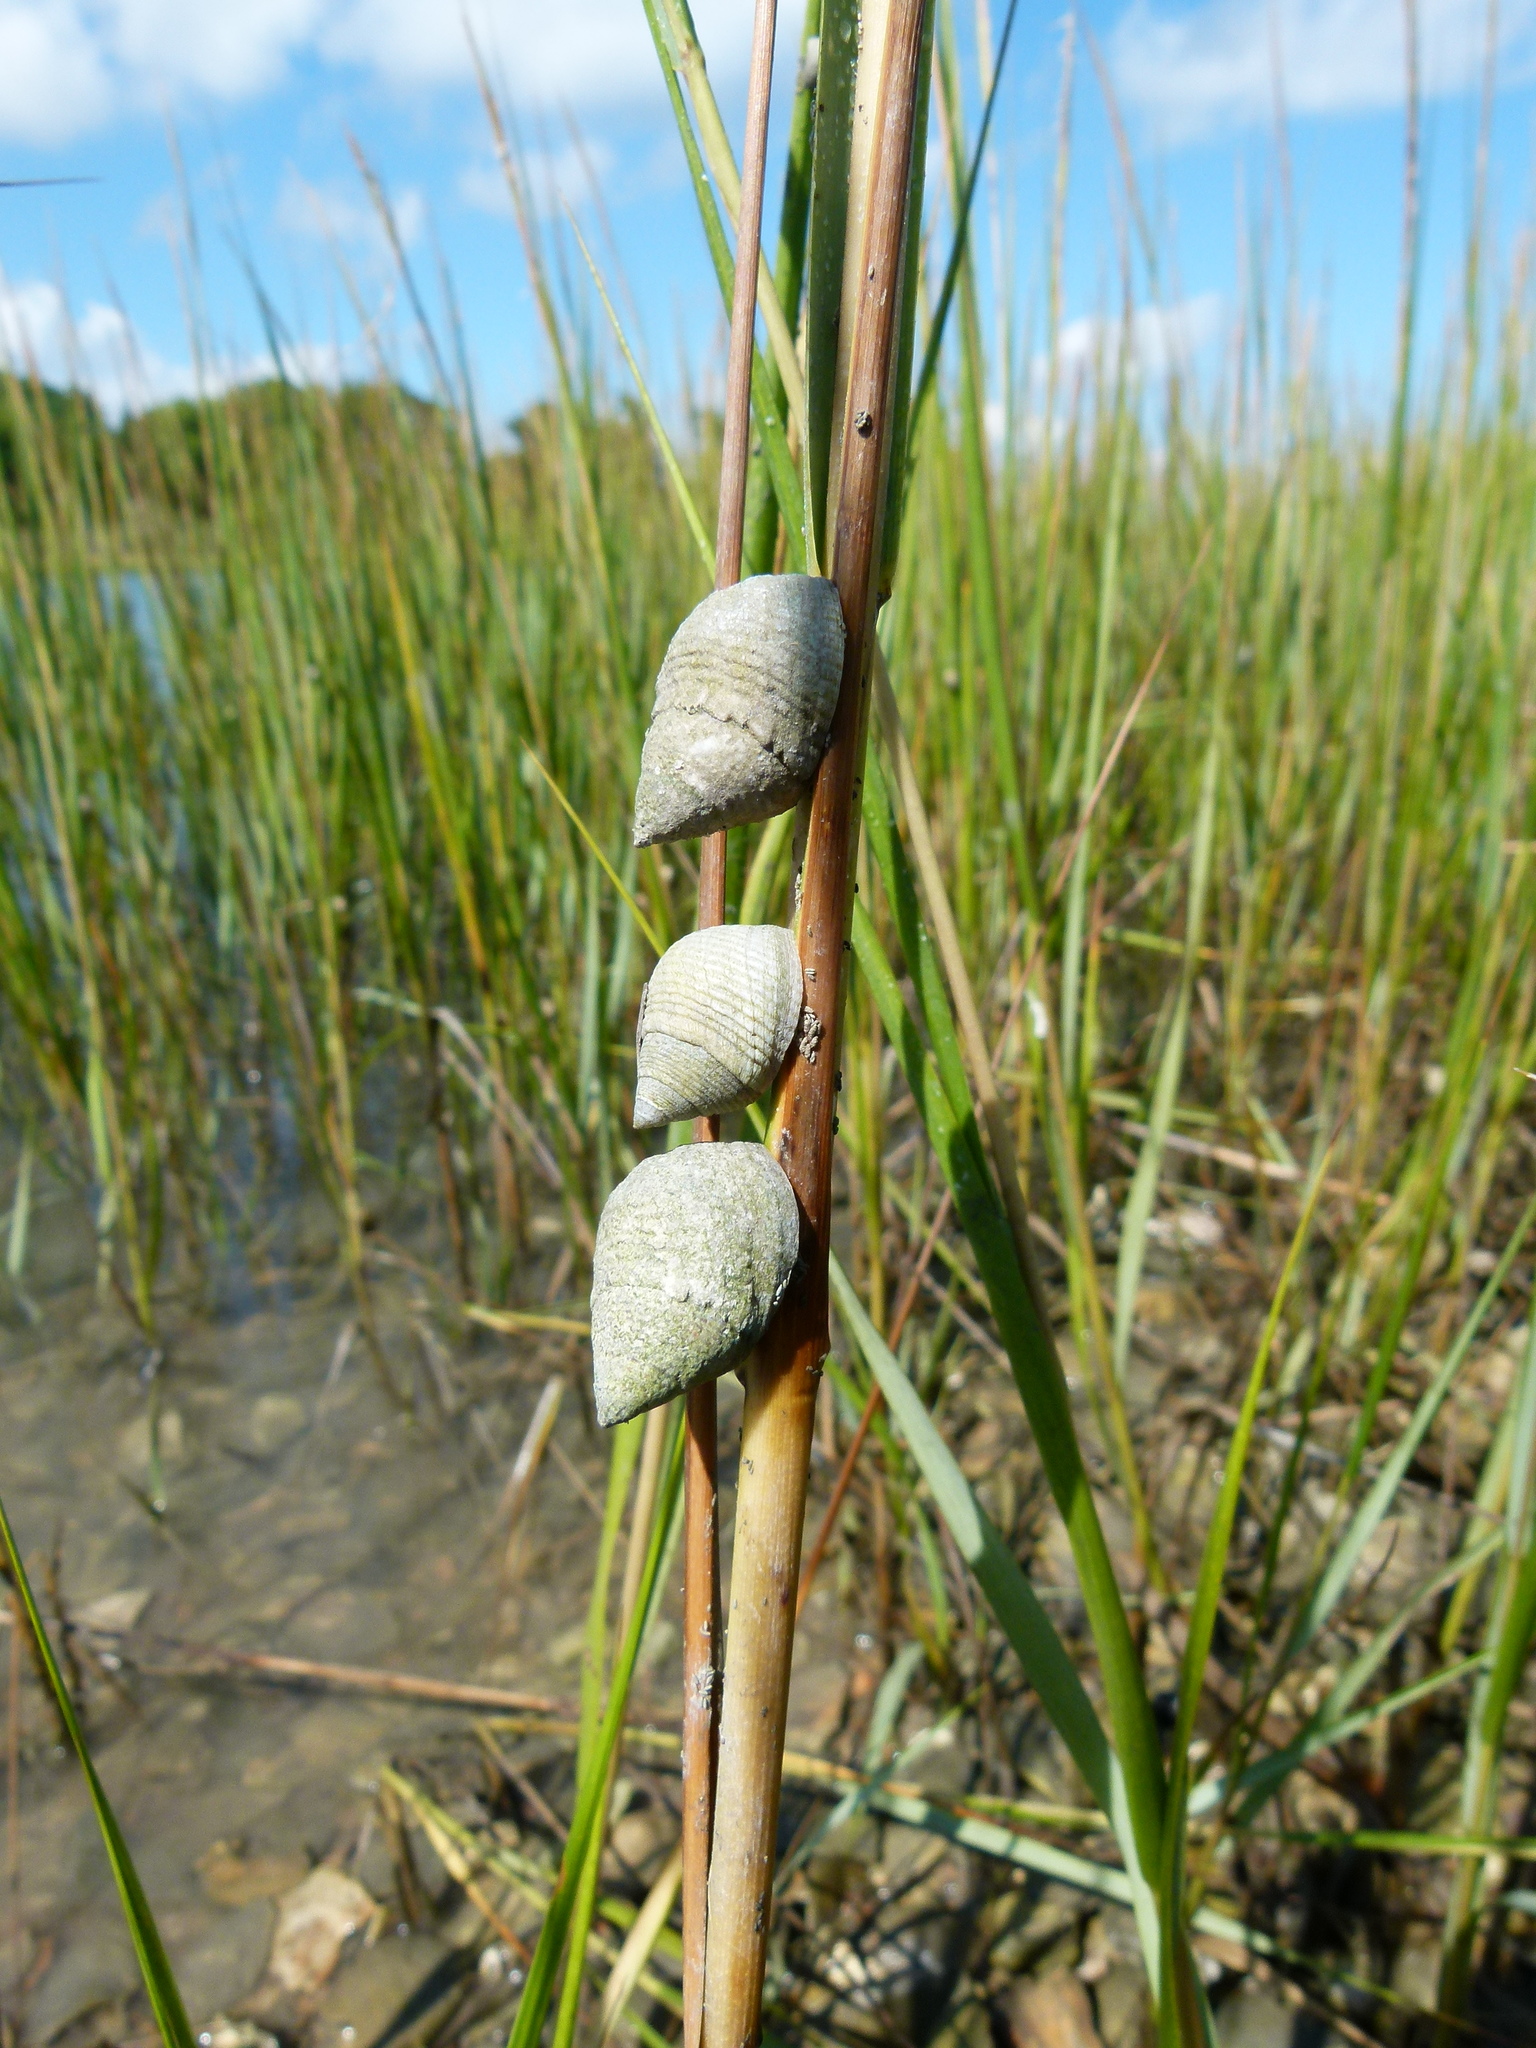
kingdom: Animalia
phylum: Mollusca
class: Gastropoda
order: Littorinimorpha
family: Littorinidae
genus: Littoraria
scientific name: Littoraria irrorata
